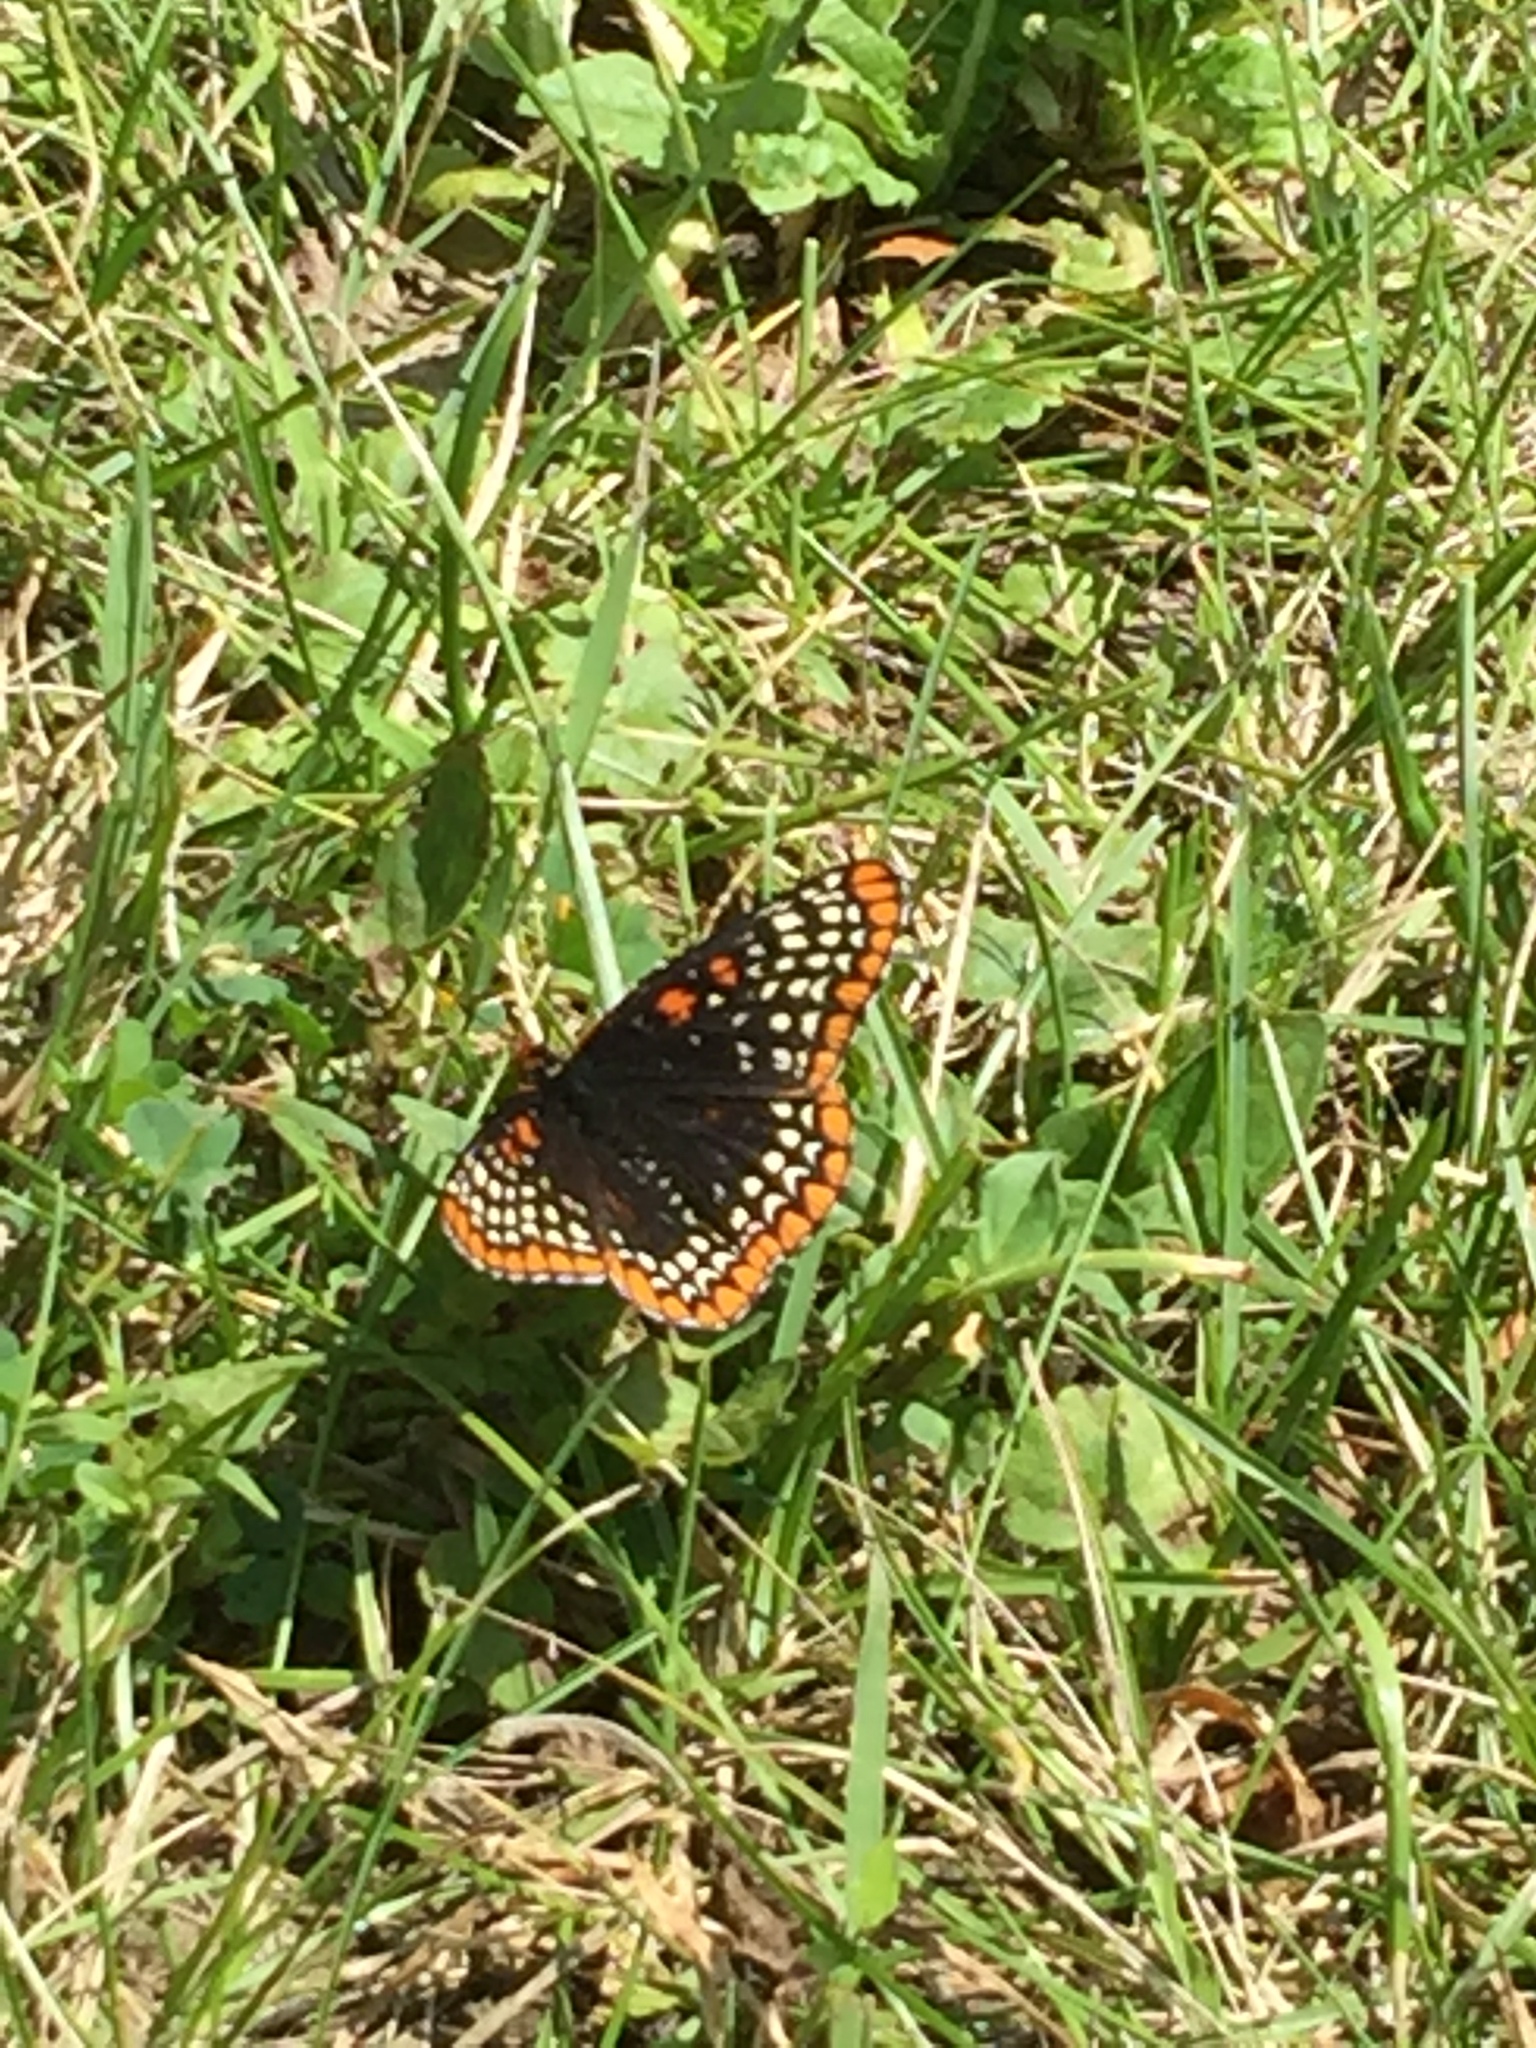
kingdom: Animalia
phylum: Arthropoda
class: Insecta
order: Lepidoptera
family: Nymphalidae
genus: Euphydryas
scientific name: Euphydryas phaeton
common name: Baltimore checkerspot
